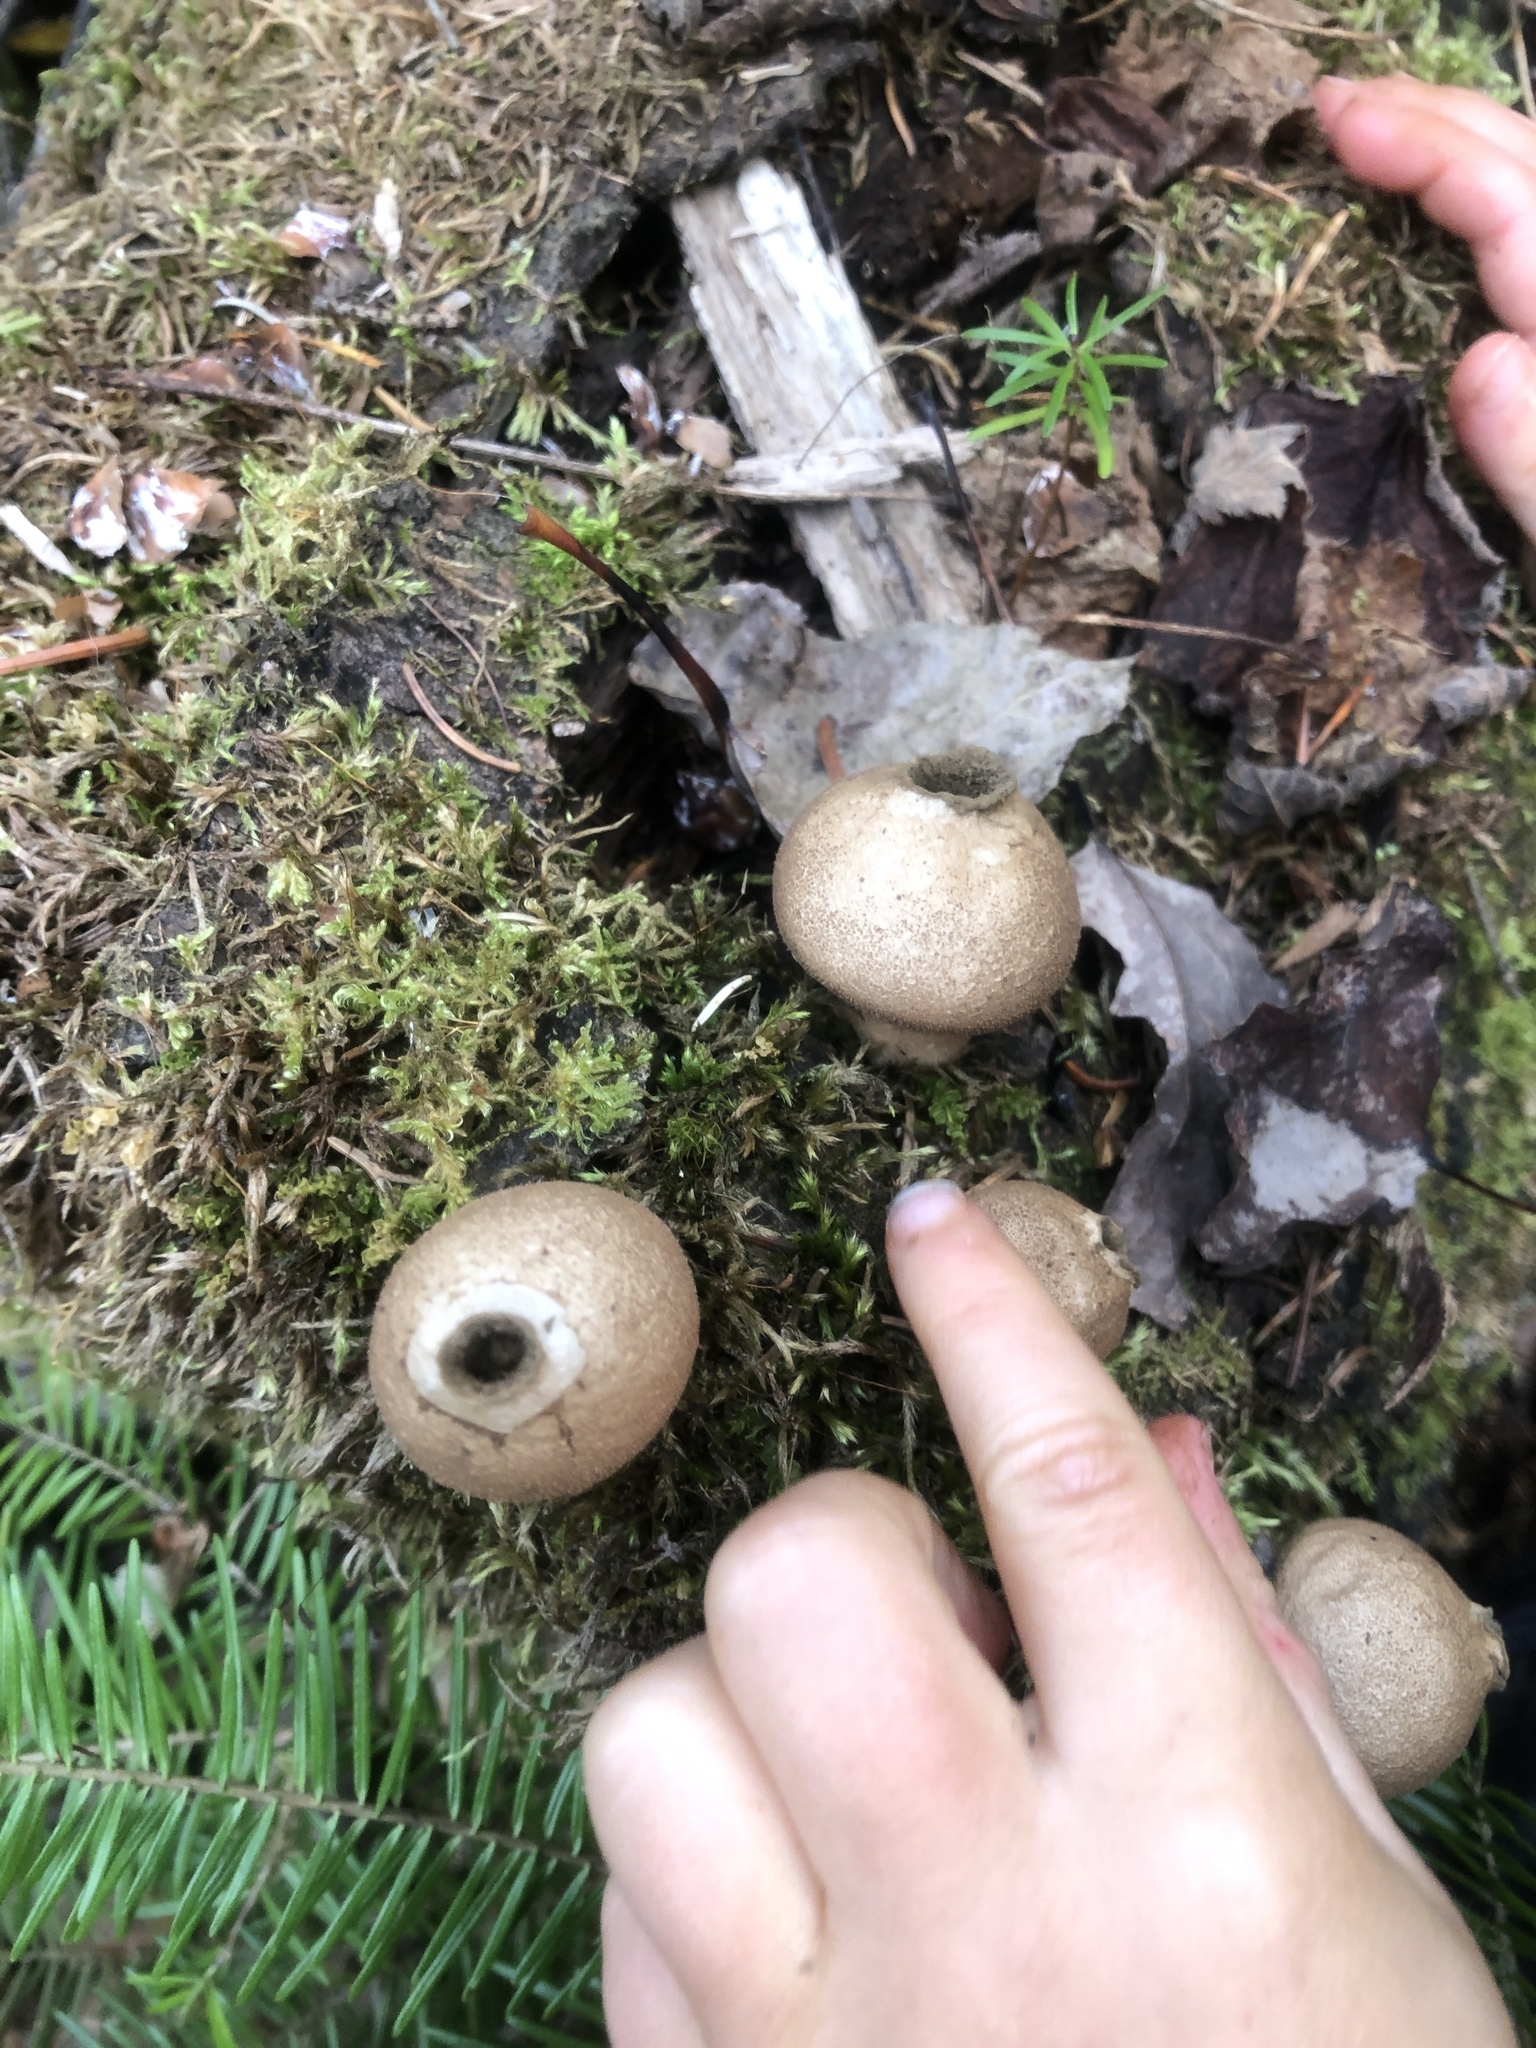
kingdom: Fungi
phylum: Basidiomycota
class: Agaricomycetes
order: Agaricales
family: Lycoperdaceae
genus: Apioperdon
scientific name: Apioperdon pyriforme
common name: Pear-shaped puffball
